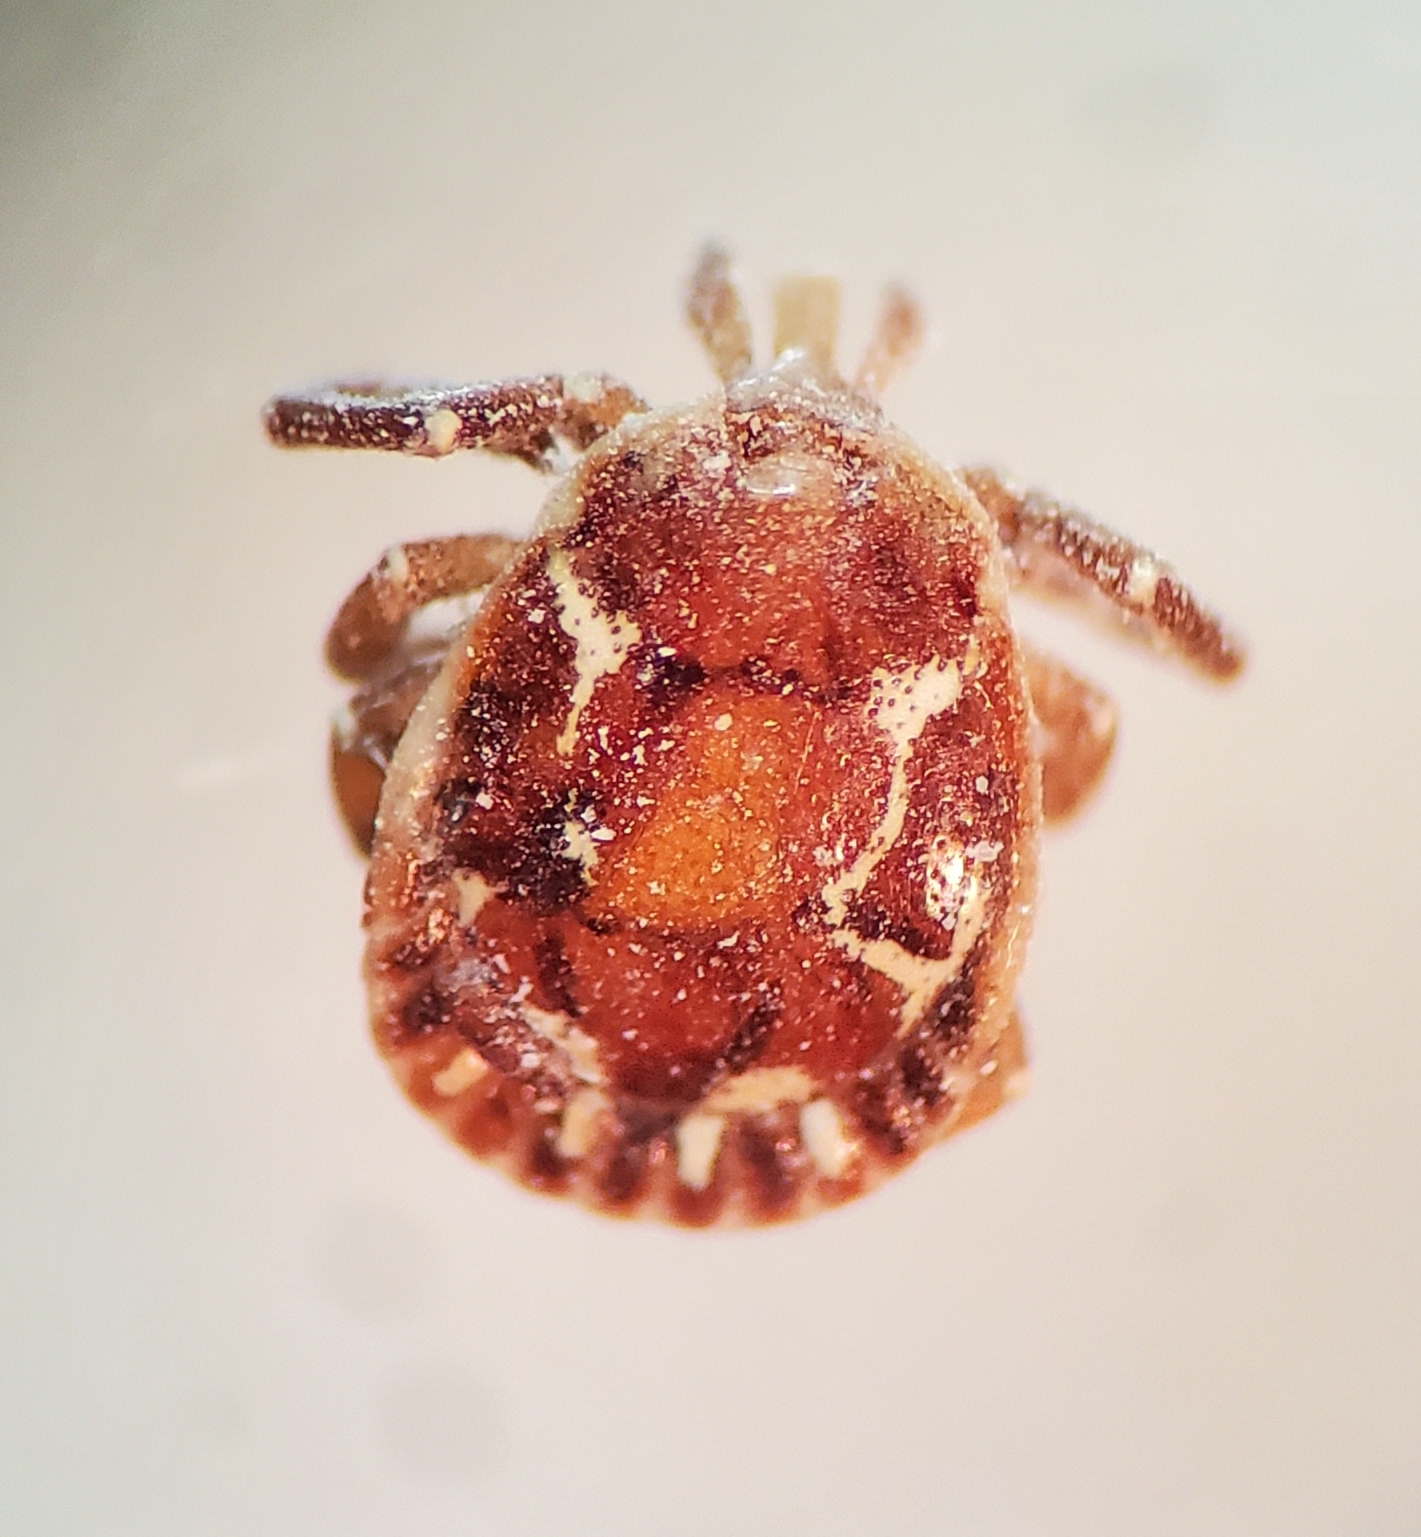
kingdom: Animalia
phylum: Arthropoda
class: Arachnida
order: Ixodida
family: Ixodidae
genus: Amblyomma
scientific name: Amblyomma americanum
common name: Lone star tick
